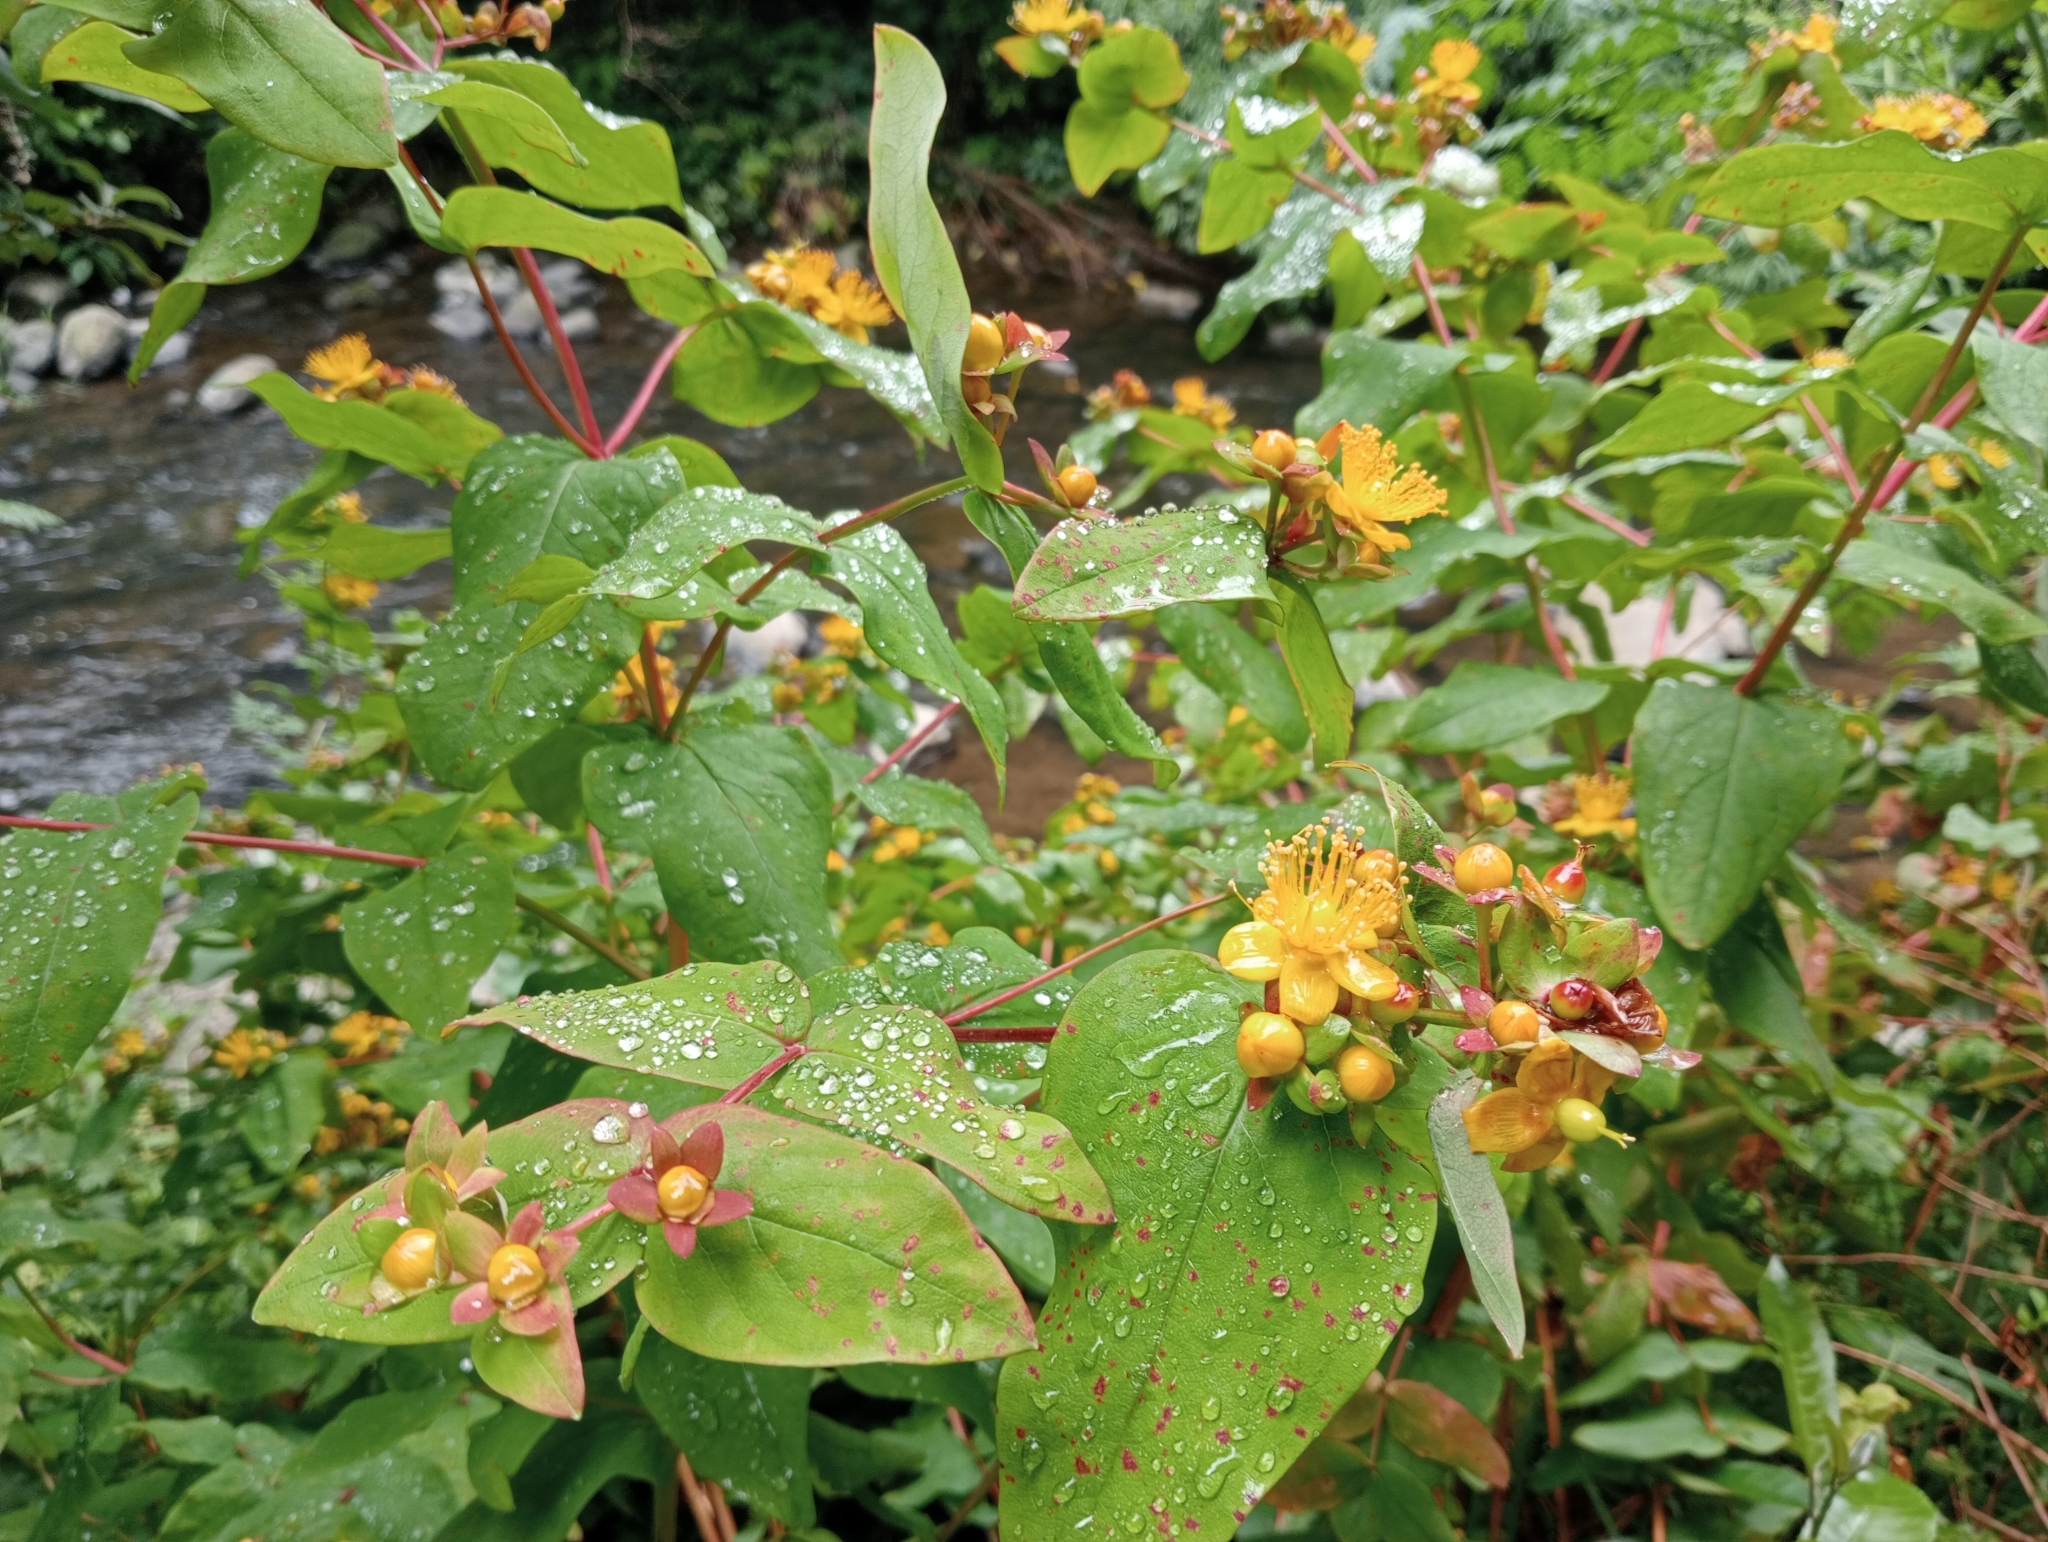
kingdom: Plantae
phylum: Tracheophyta
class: Magnoliopsida
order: Malpighiales
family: Hypericaceae
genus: Hypericum
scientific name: Hypericum androsaemum
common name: Sweet-amber
